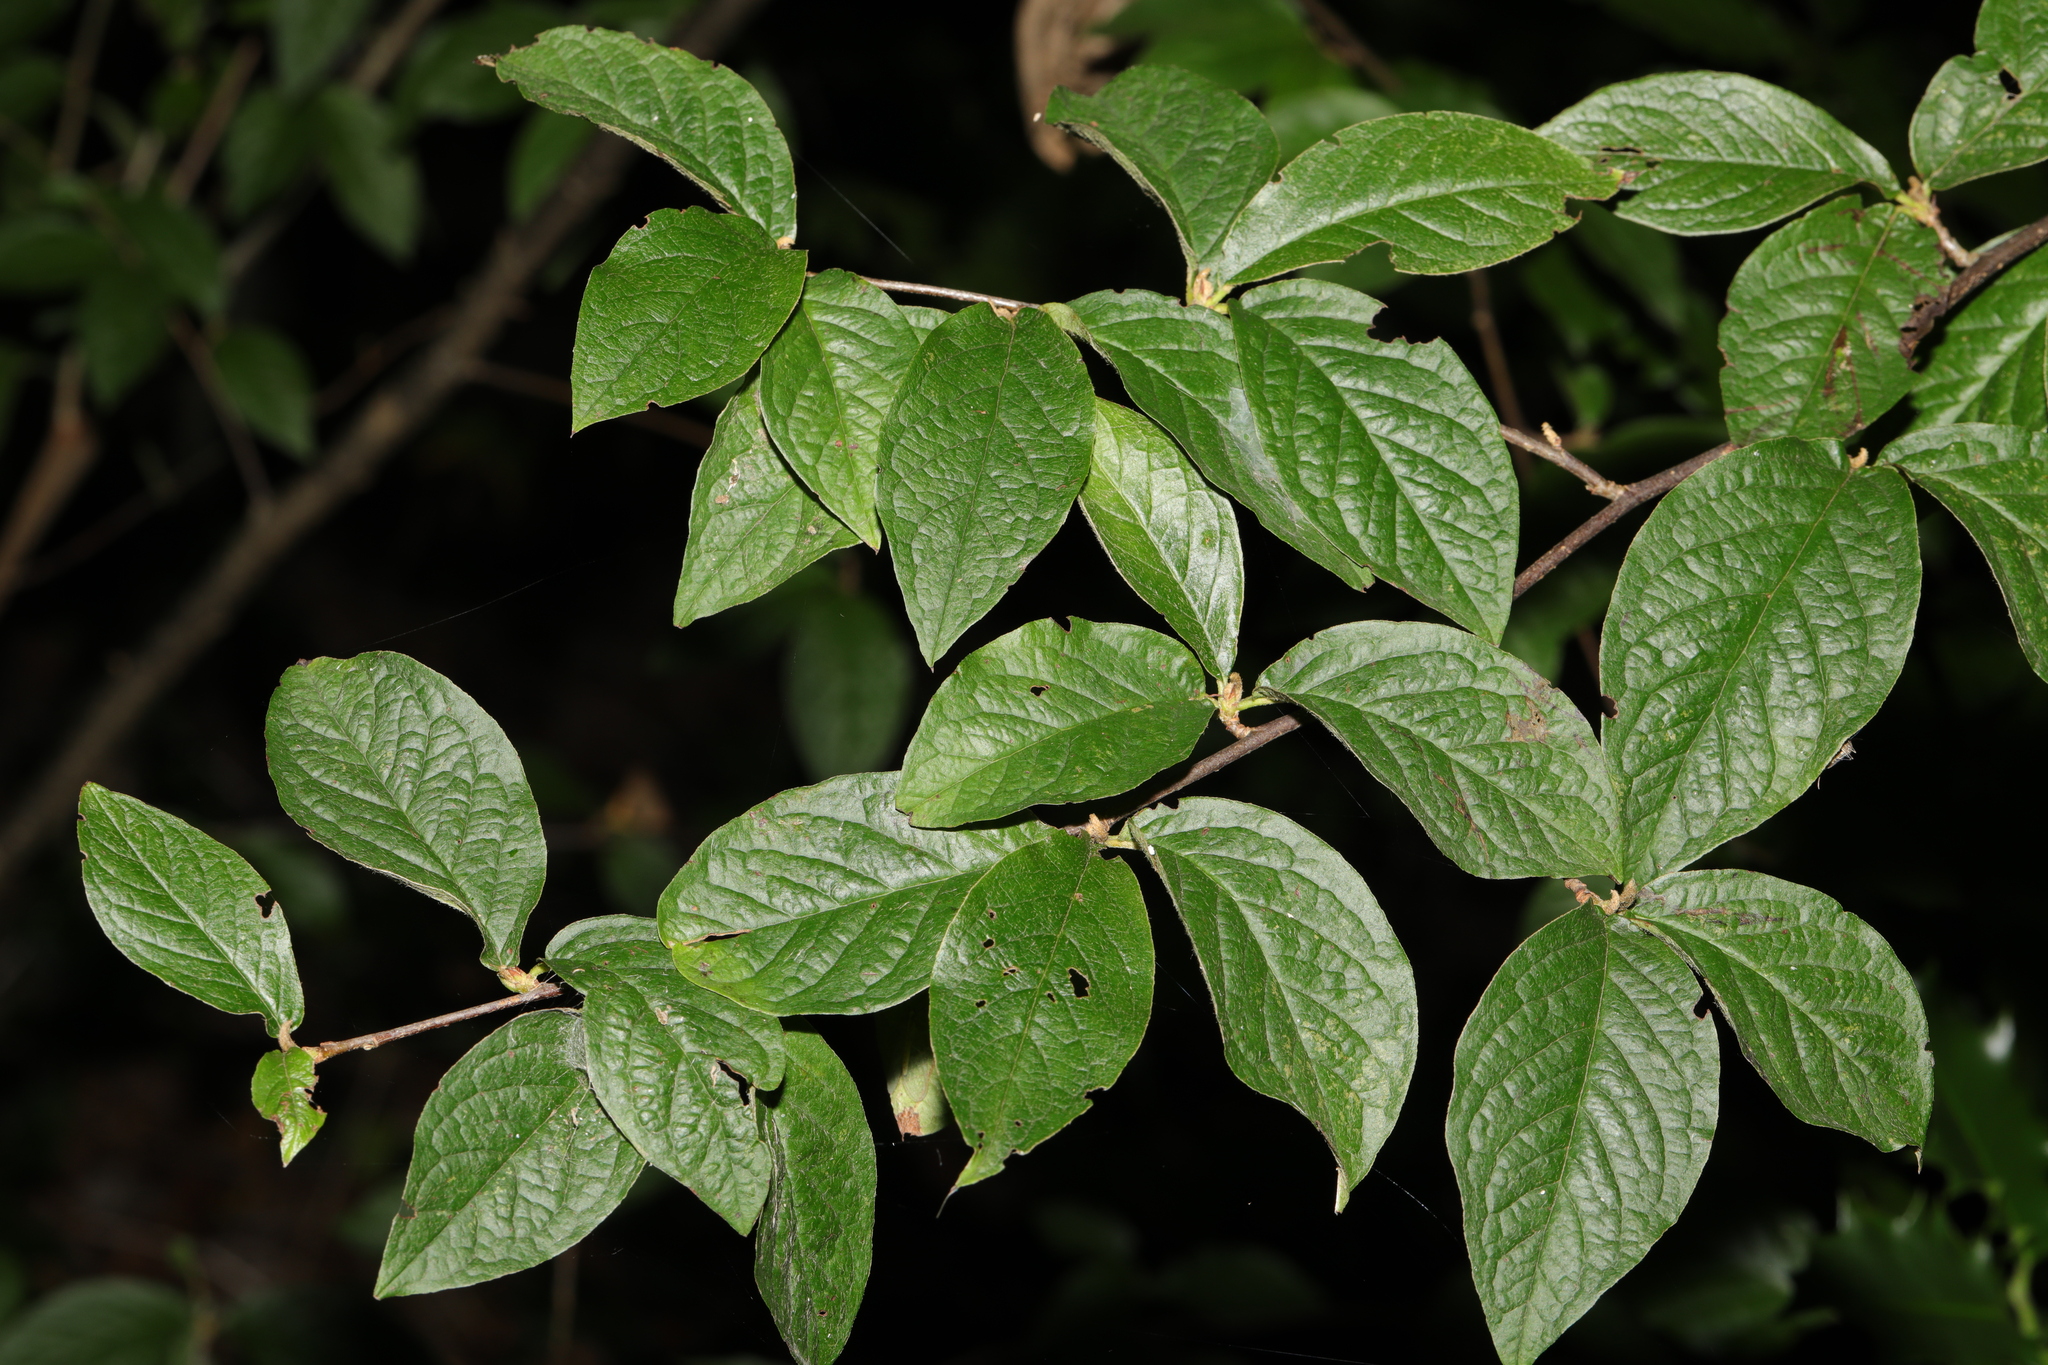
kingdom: Plantae
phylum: Tracheophyta
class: Magnoliopsida
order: Rosales
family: Rosaceae
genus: Cotoneaster
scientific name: Cotoneaster bullatus
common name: Hollyberry cotoneaster
